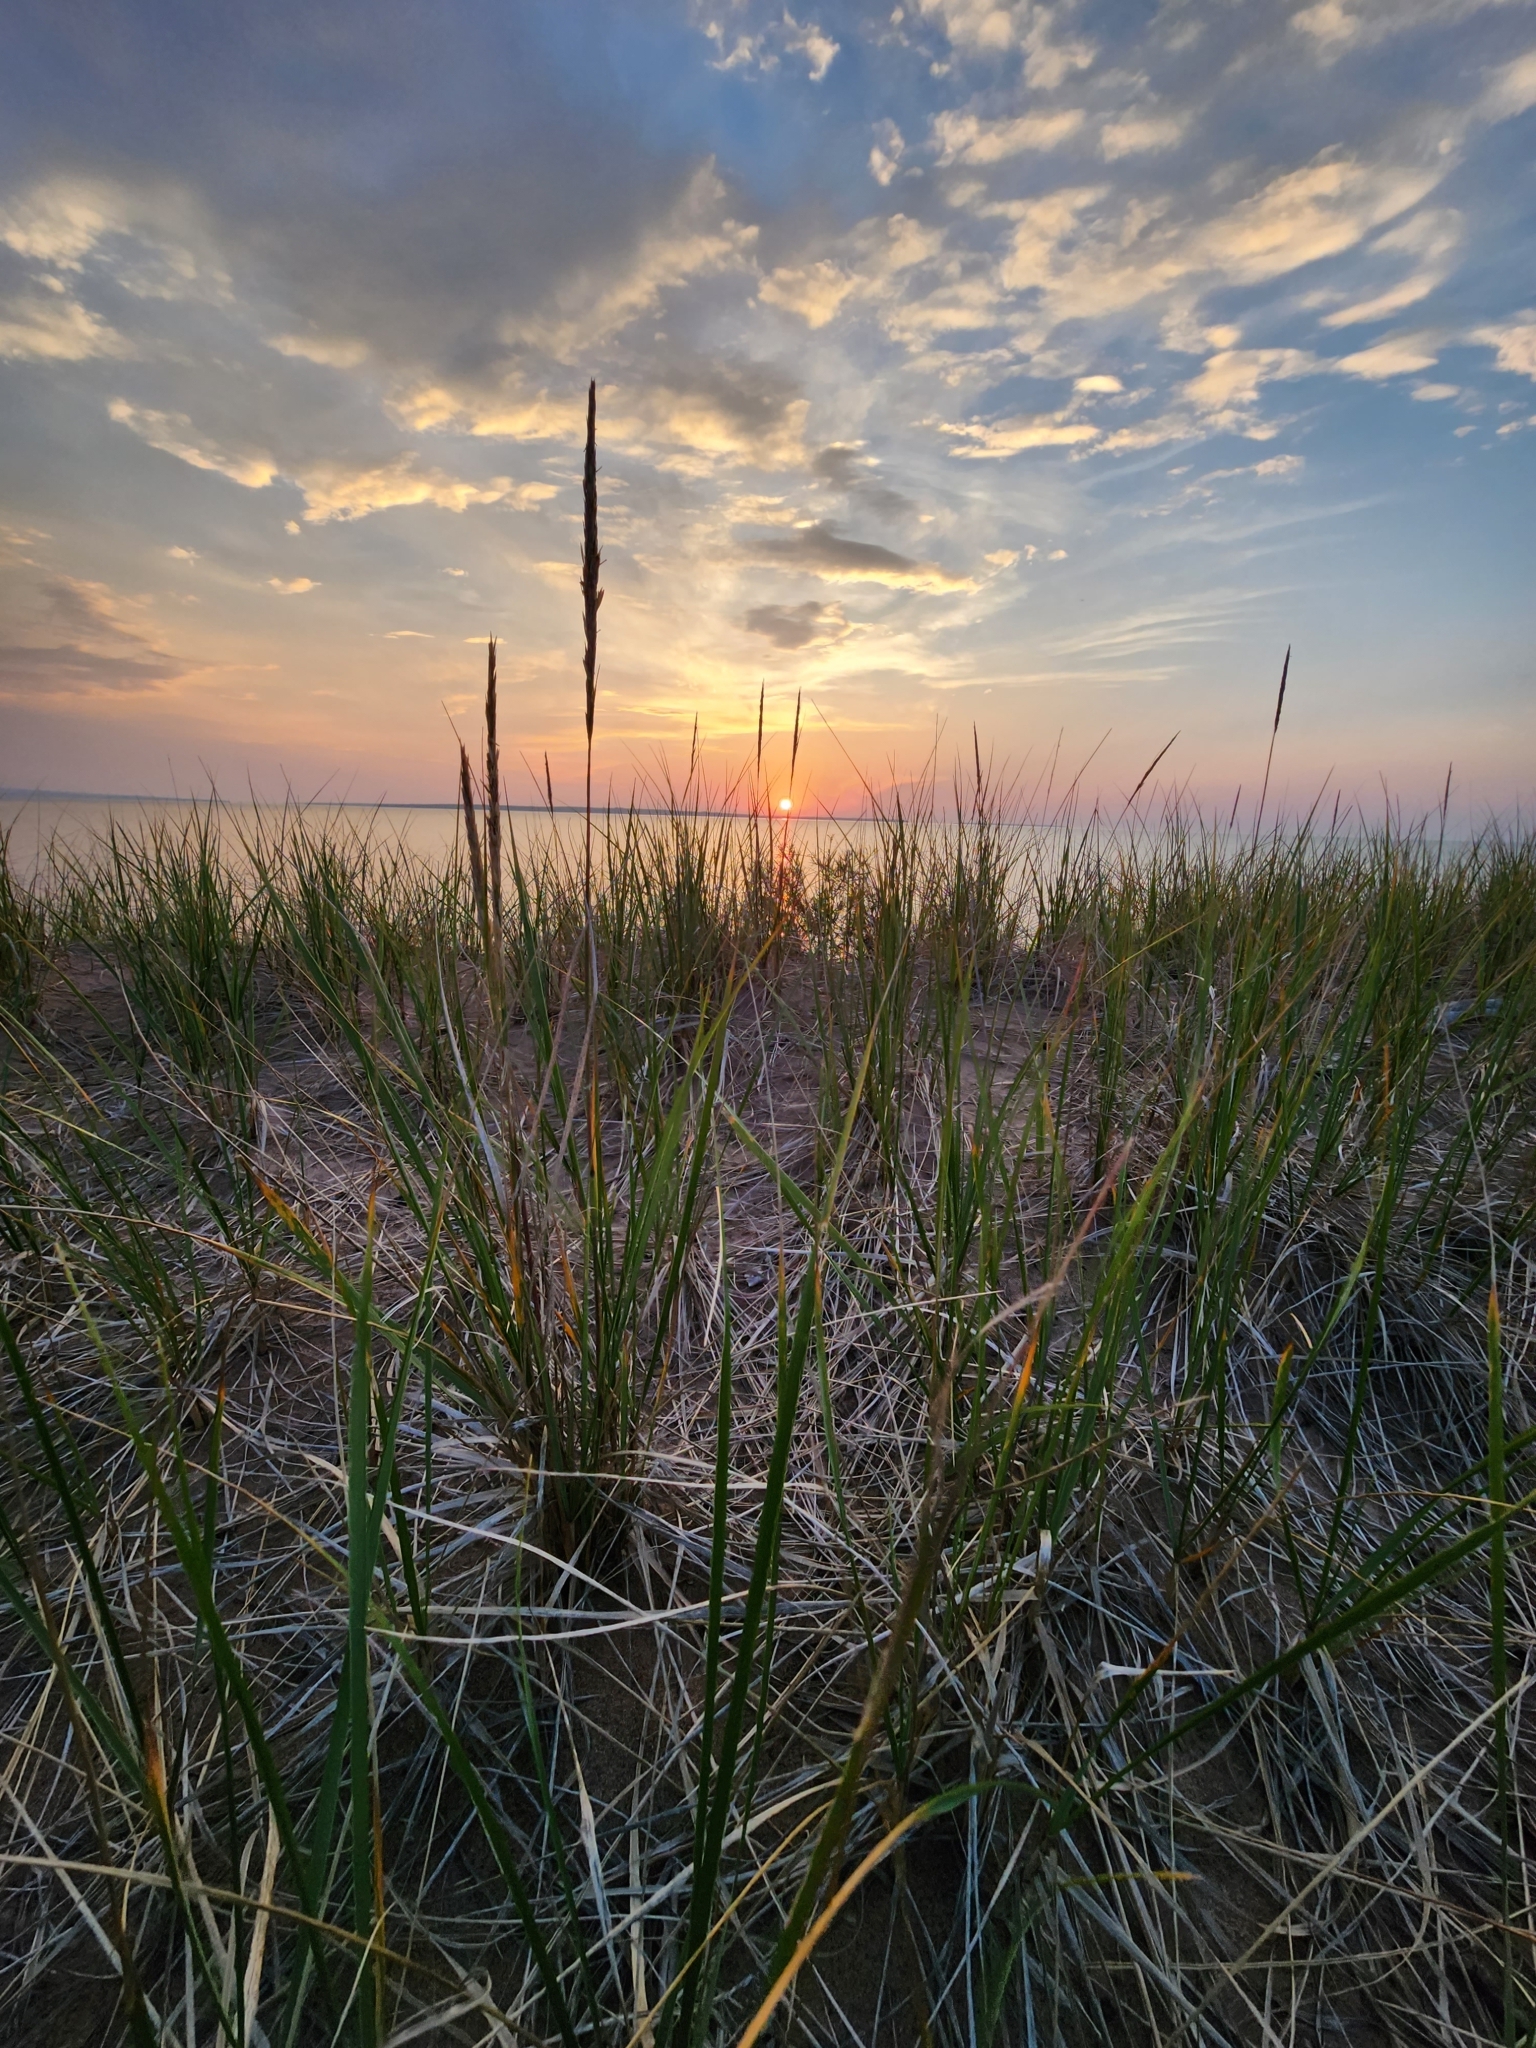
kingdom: Plantae
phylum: Tracheophyta
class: Liliopsida
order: Poales
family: Poaceae
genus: Calamagrostis
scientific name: Calamagrostis breviligulata
